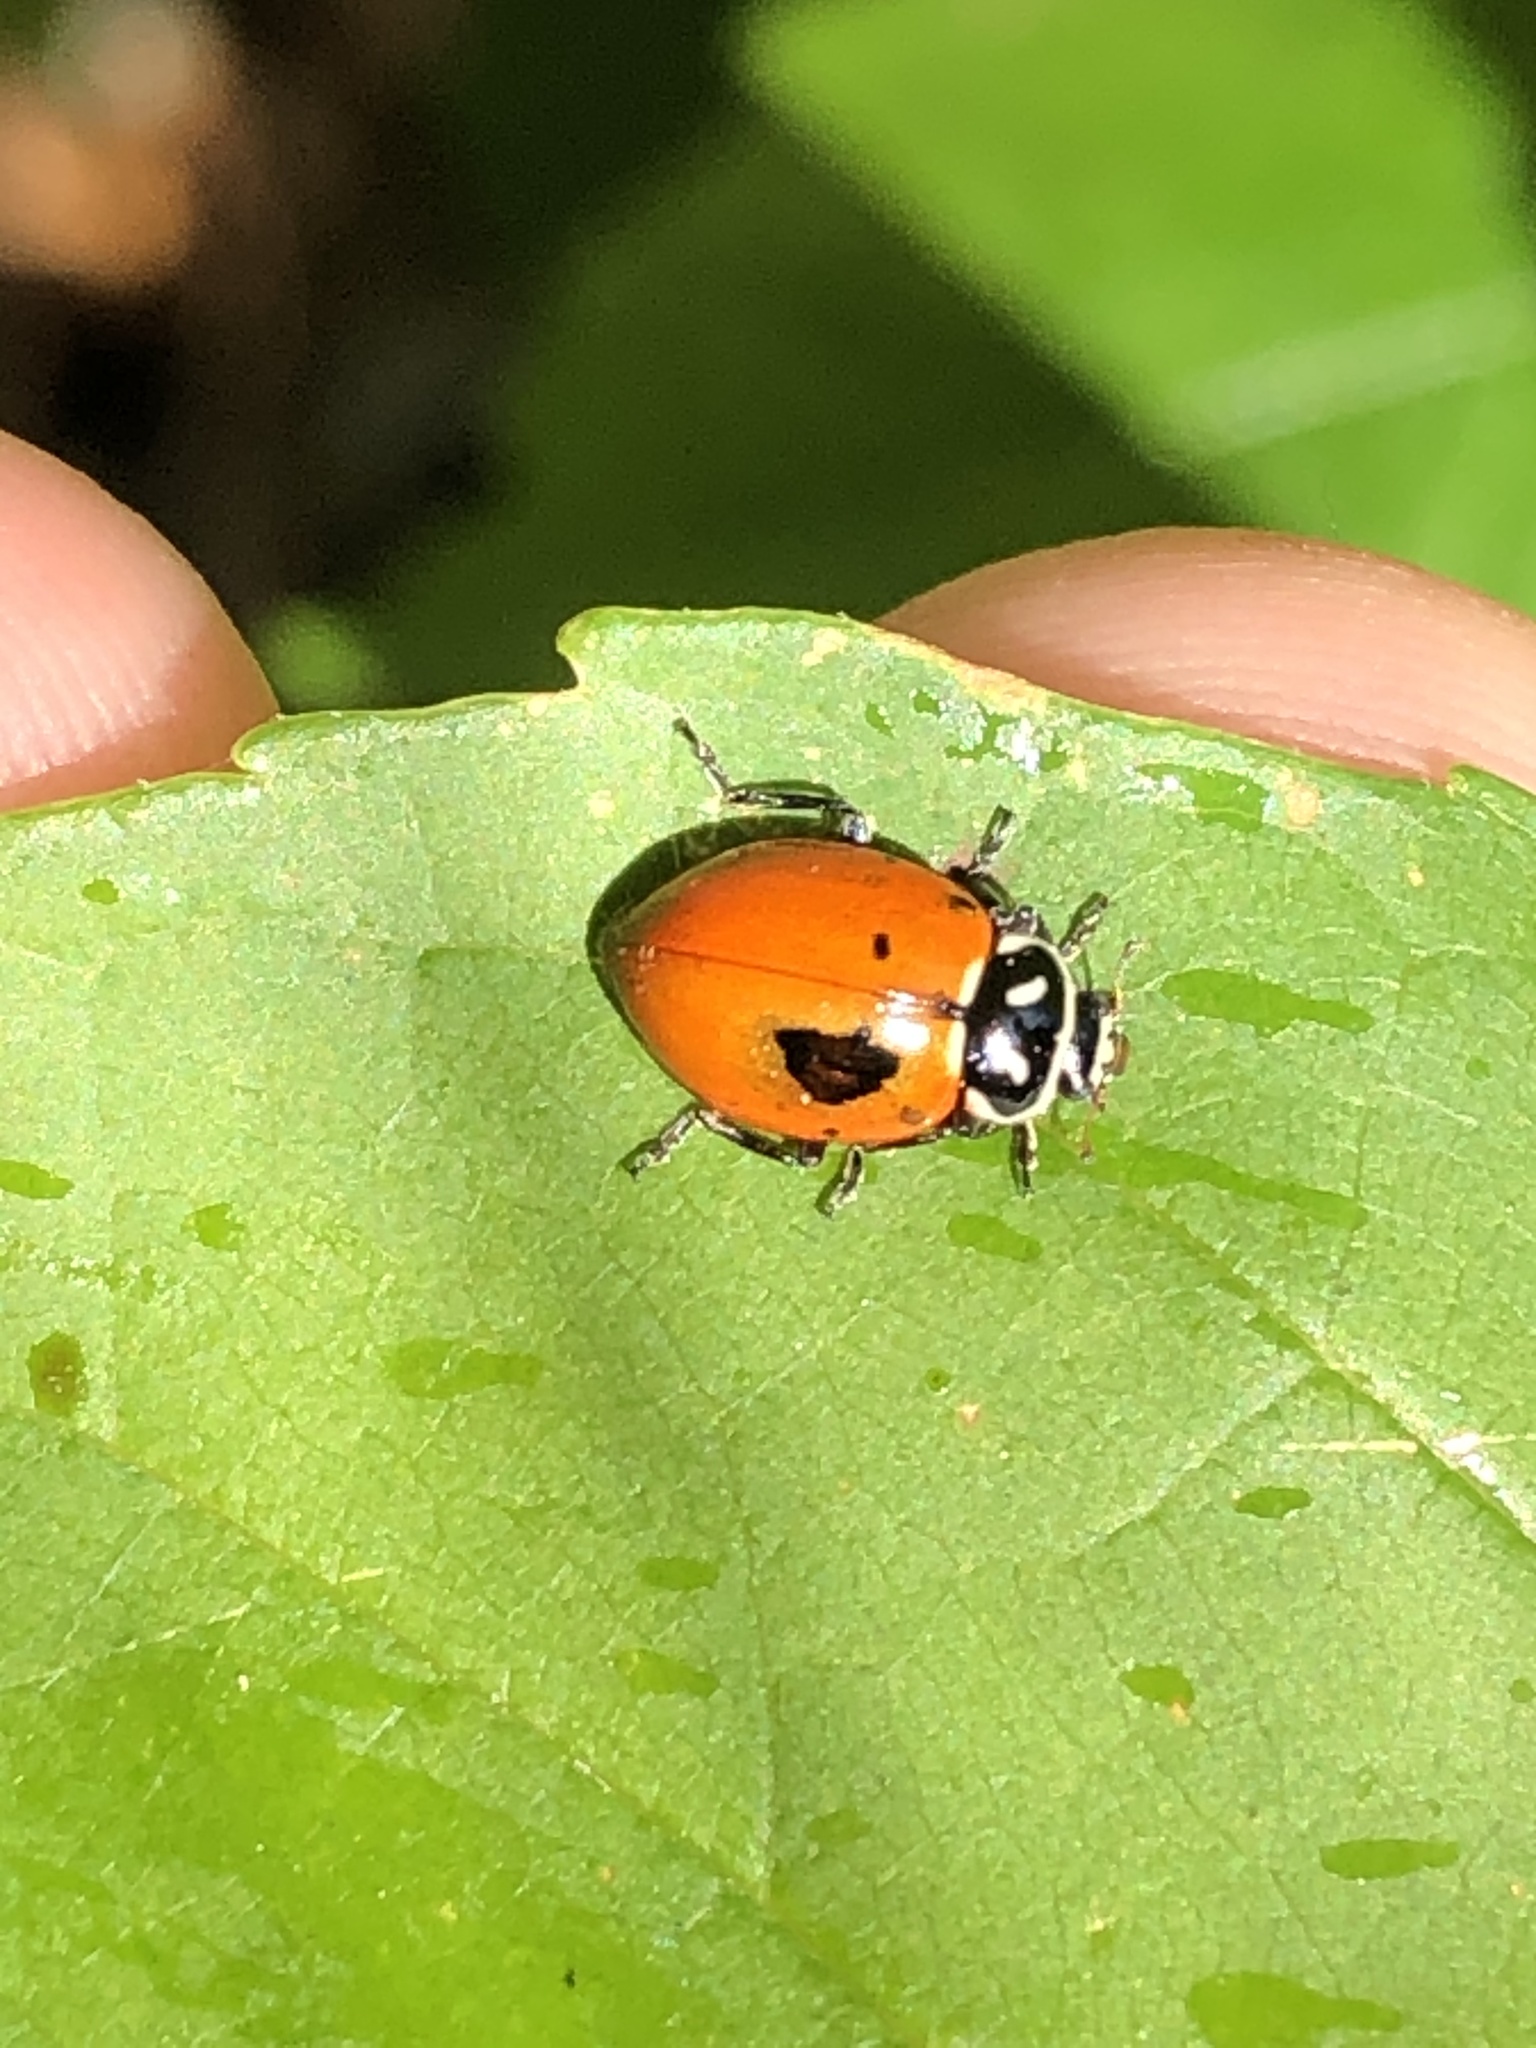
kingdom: Animalia
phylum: Arthropoda
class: Insecta
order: Coleoptera
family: Coccinellidae
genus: Hippodamia
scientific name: Hippodamia convergens
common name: Convergent lady beetle
